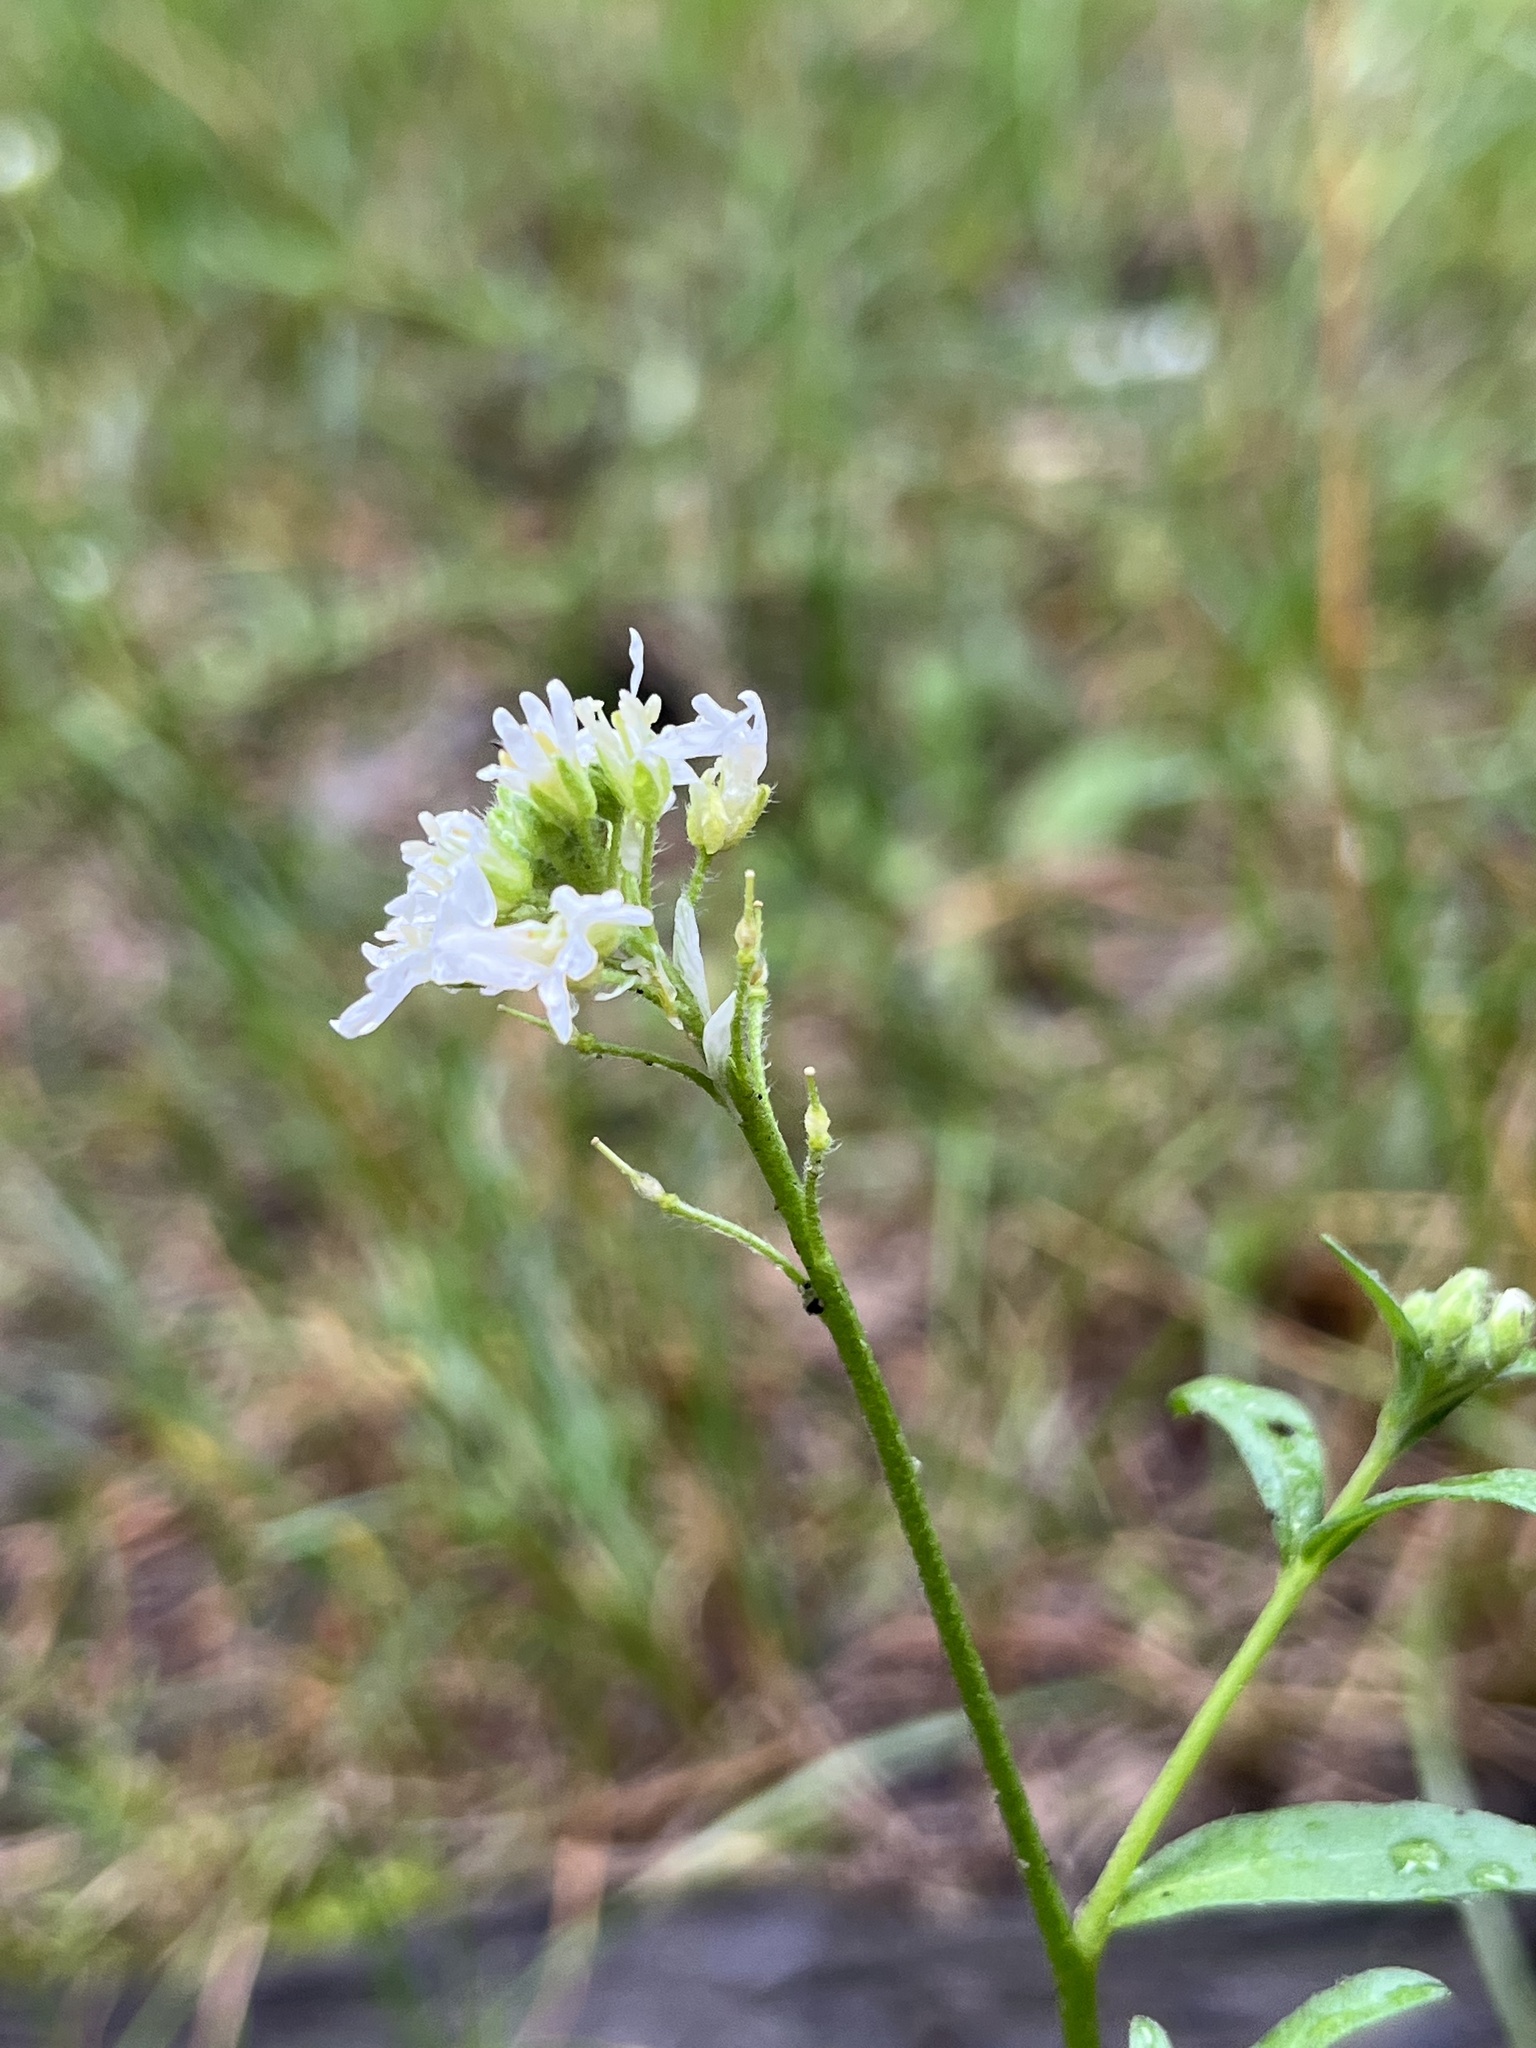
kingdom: Plantae
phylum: Tracheophyta
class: Magnoliopsida
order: Brassicales
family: Brassicaceae
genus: Berteroa
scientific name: Berteroa incana
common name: Hoary alison
